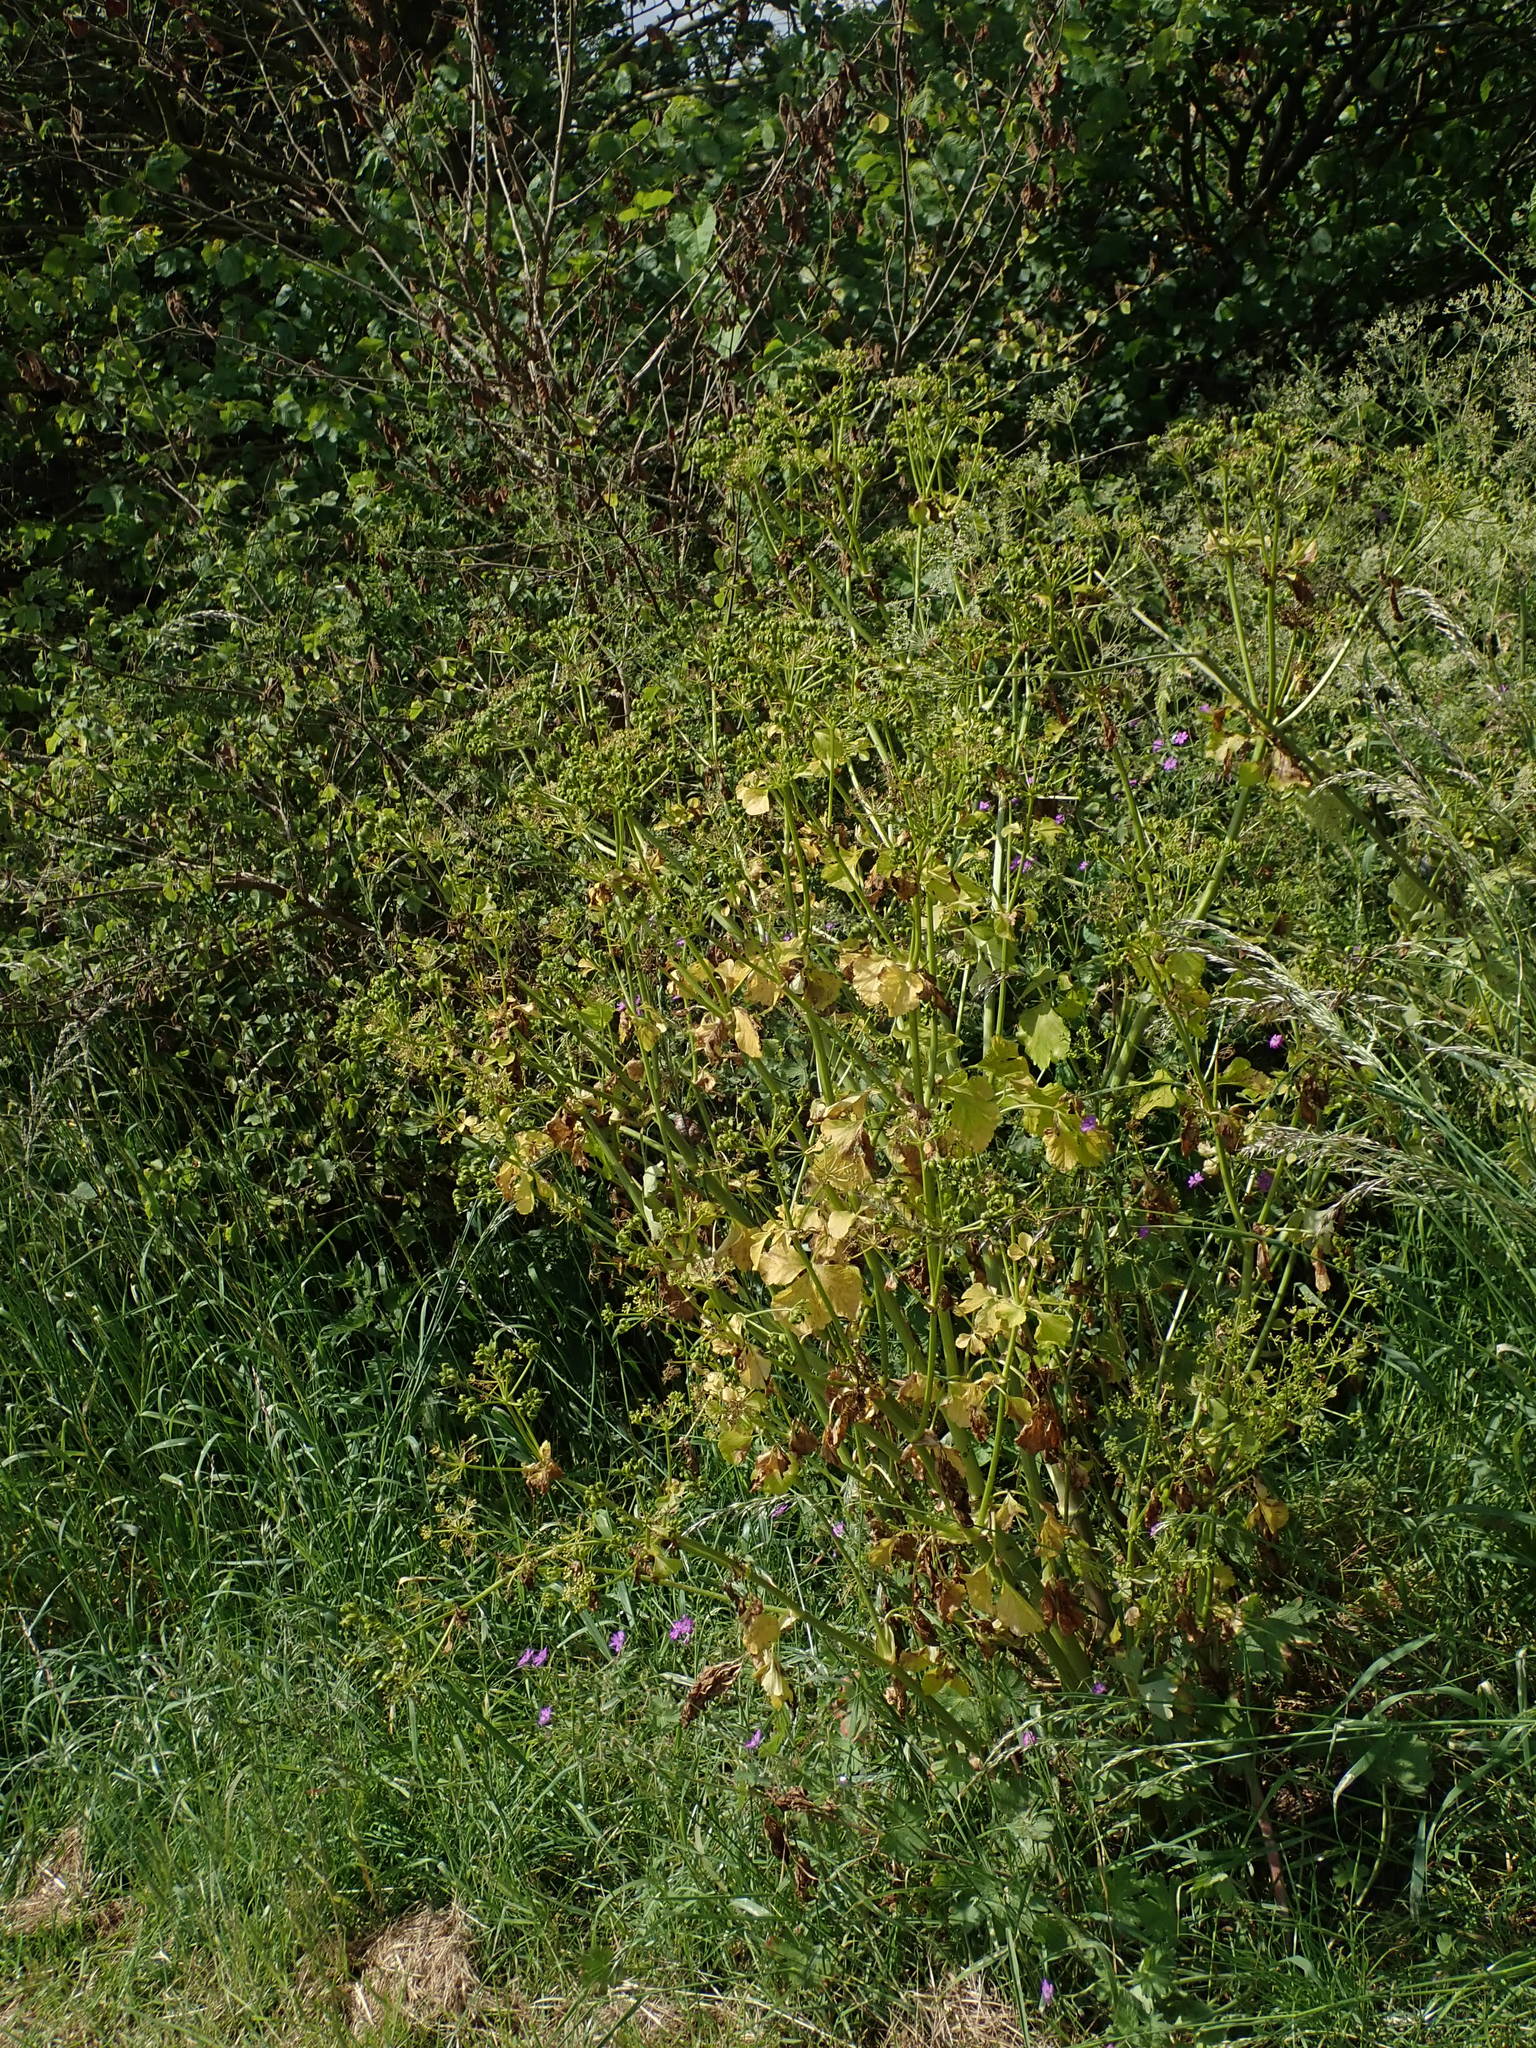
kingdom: Plantae
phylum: Tracheophyta
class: Magnoliopsida
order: Apiales
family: Apiaceae
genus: Smyrnium
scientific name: Smyrnium olusatrum
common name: Alexanders
